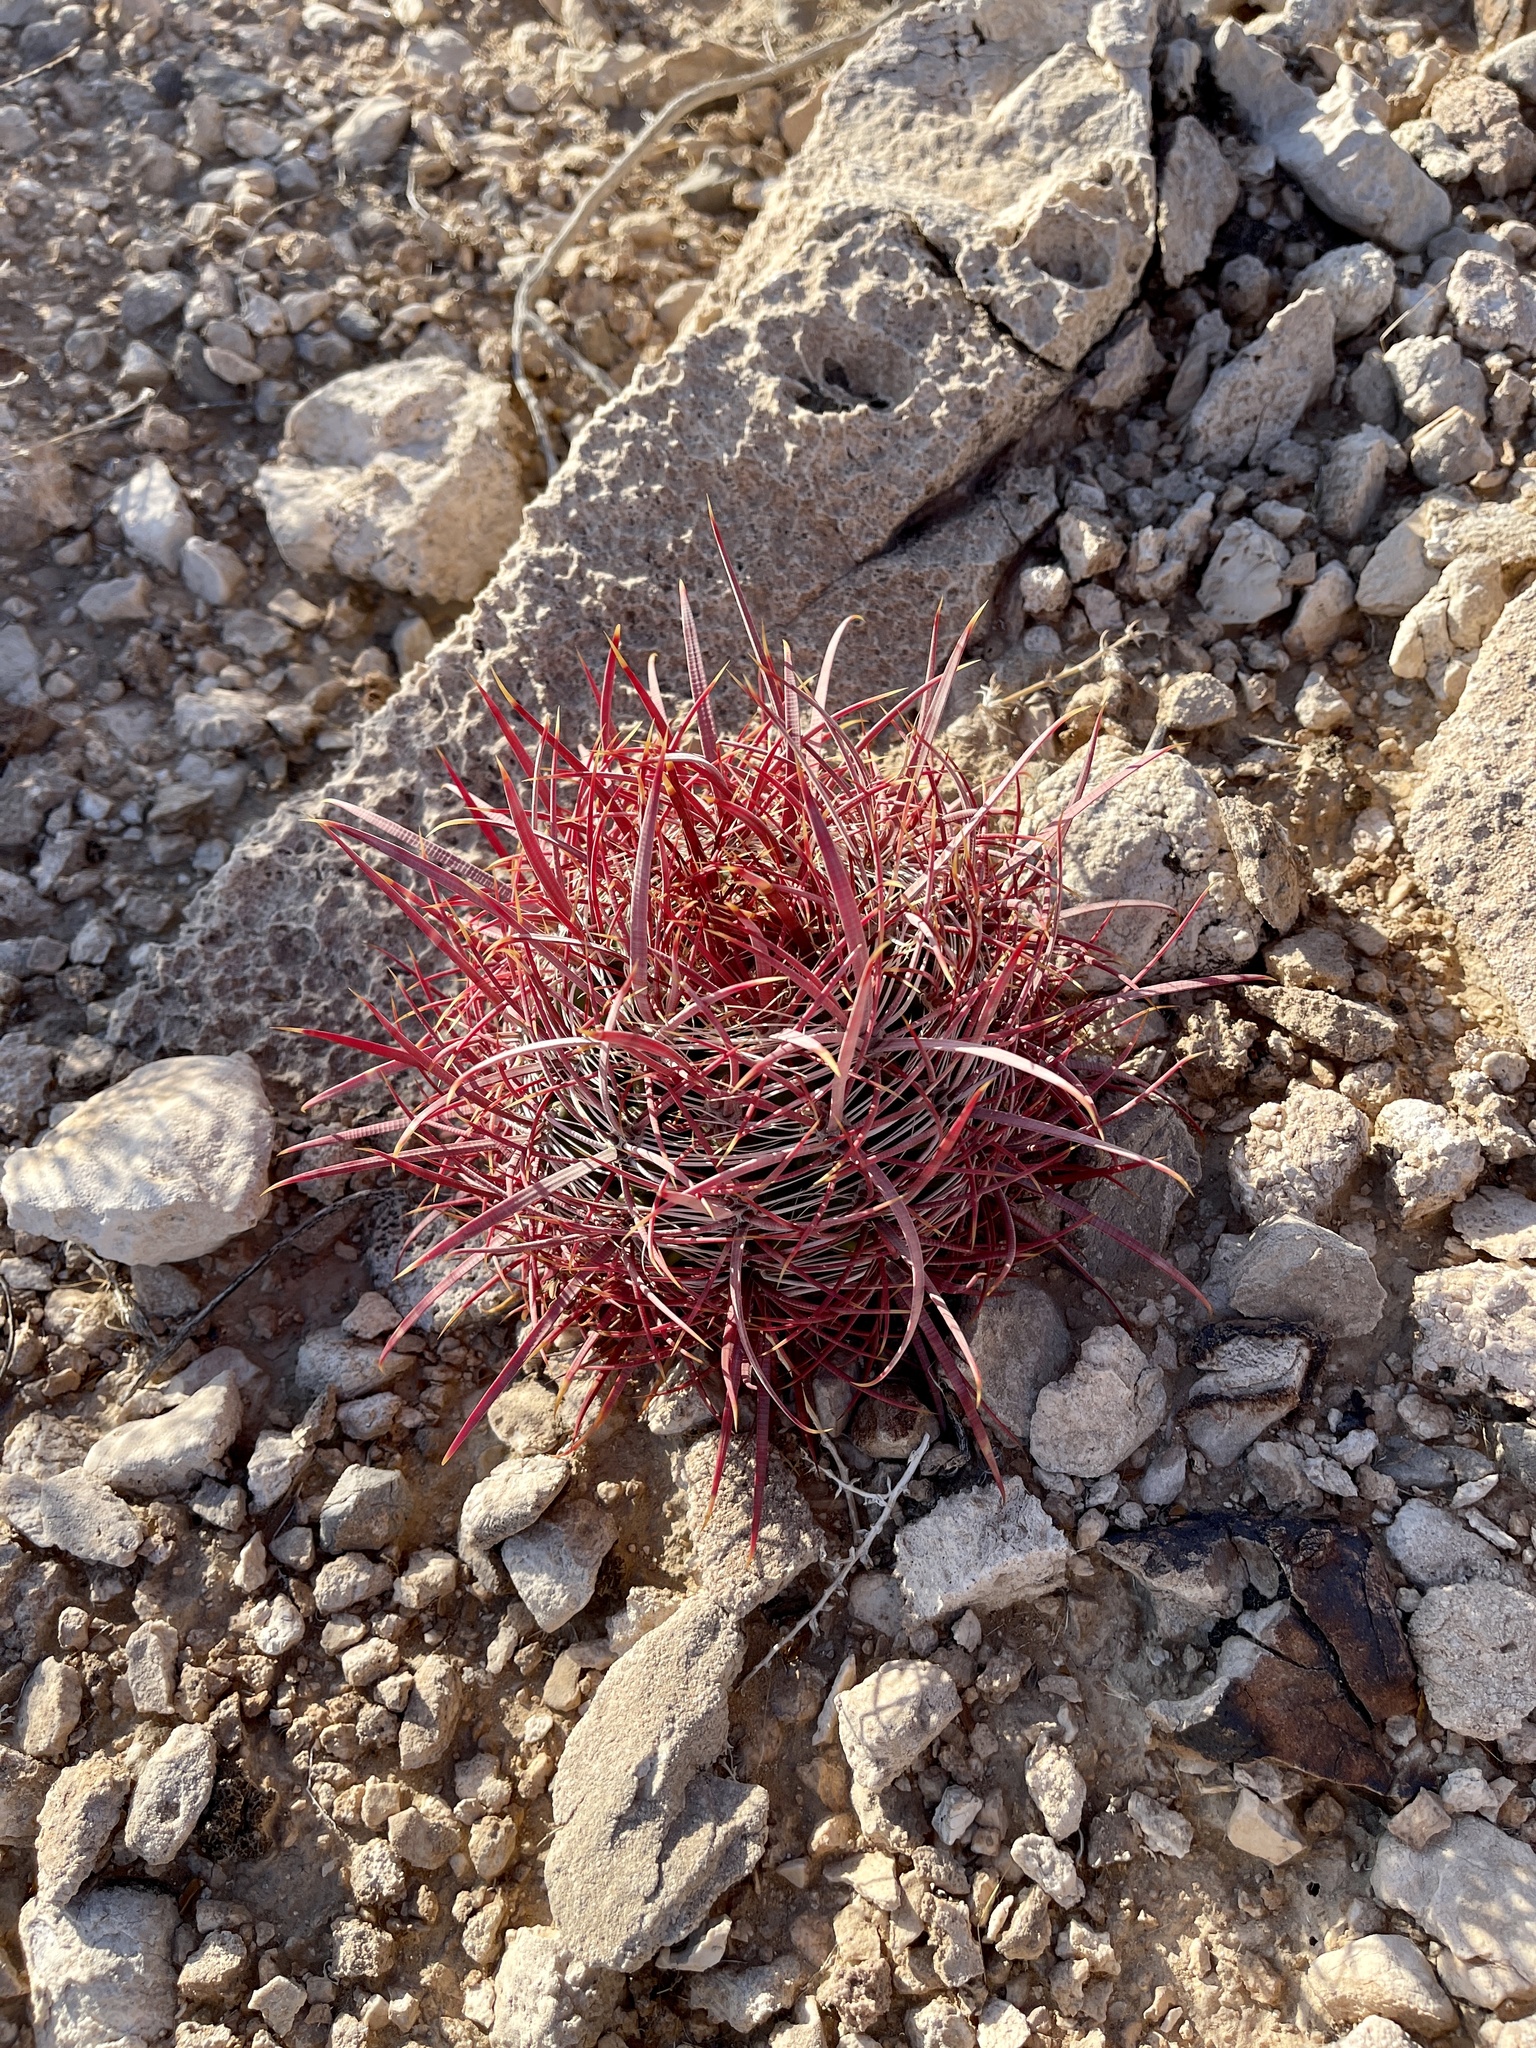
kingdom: Plantae
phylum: Tracheophyta
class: Magnoliopsida
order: Caryophyllales
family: Cactaceae
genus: Ferocactus
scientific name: Ferocactus cylindraceus
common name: California barrel cactus
